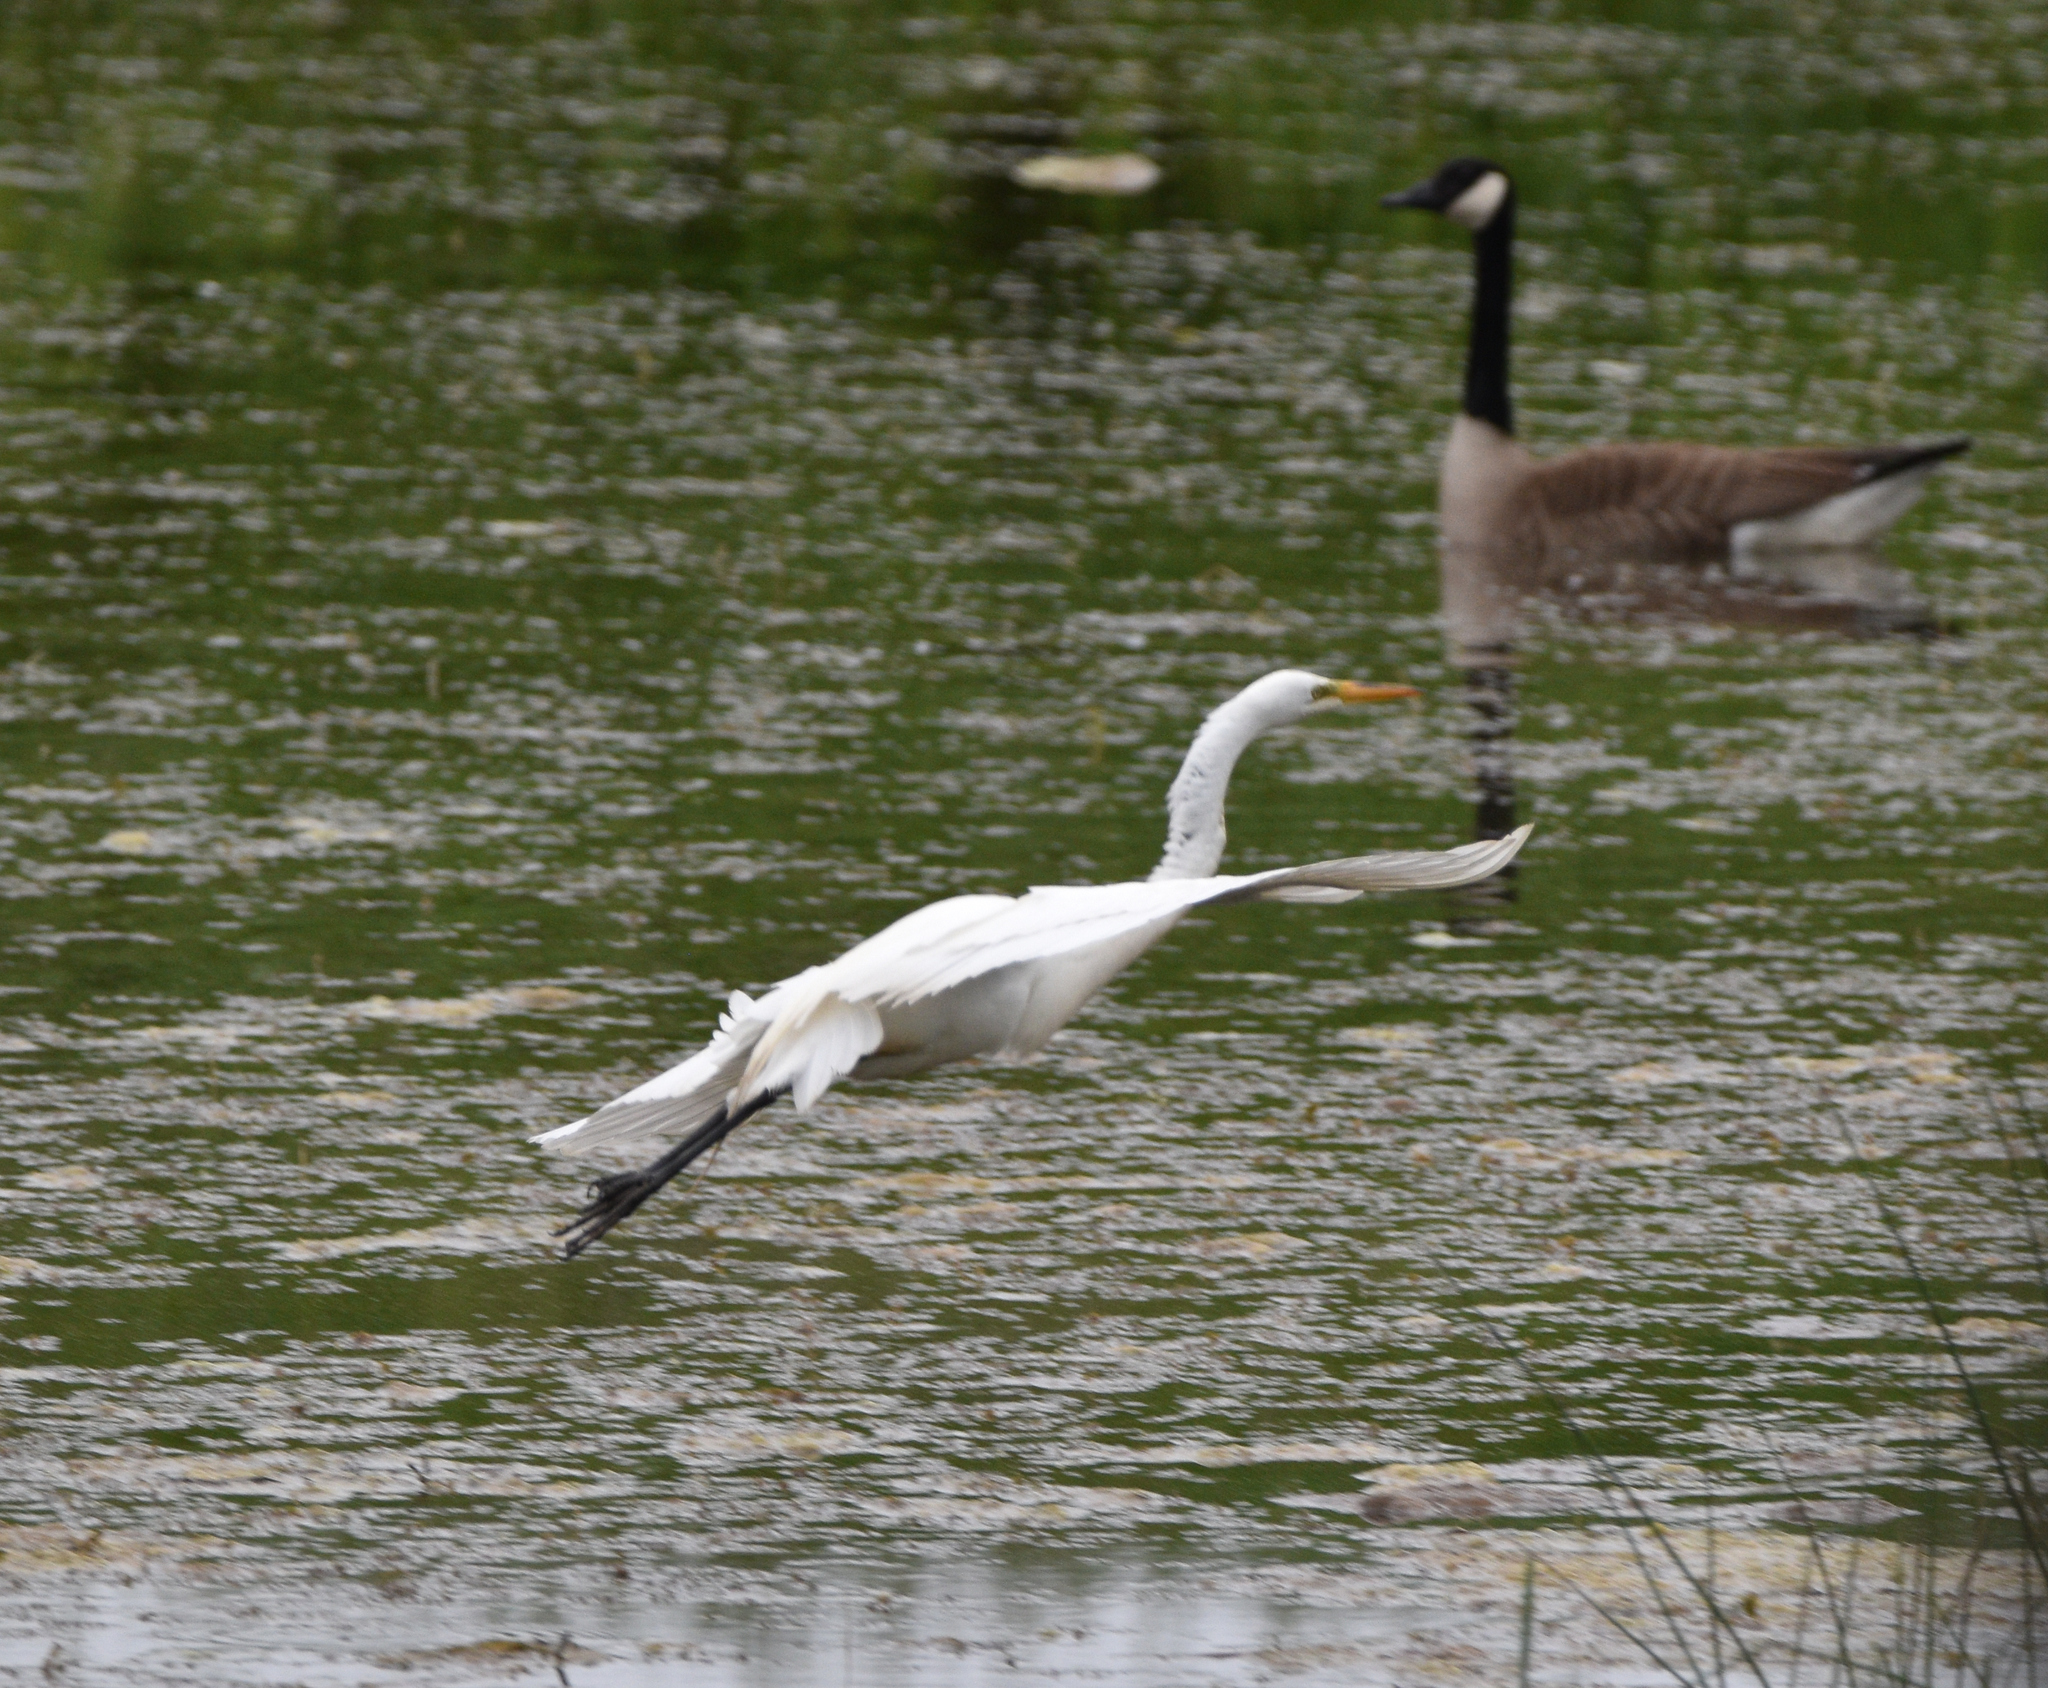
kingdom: Animalia
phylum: Chordata
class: Aves
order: Pelecaniformes
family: Ardeidae
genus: Ardea
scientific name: Ardea alba
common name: Great egret
